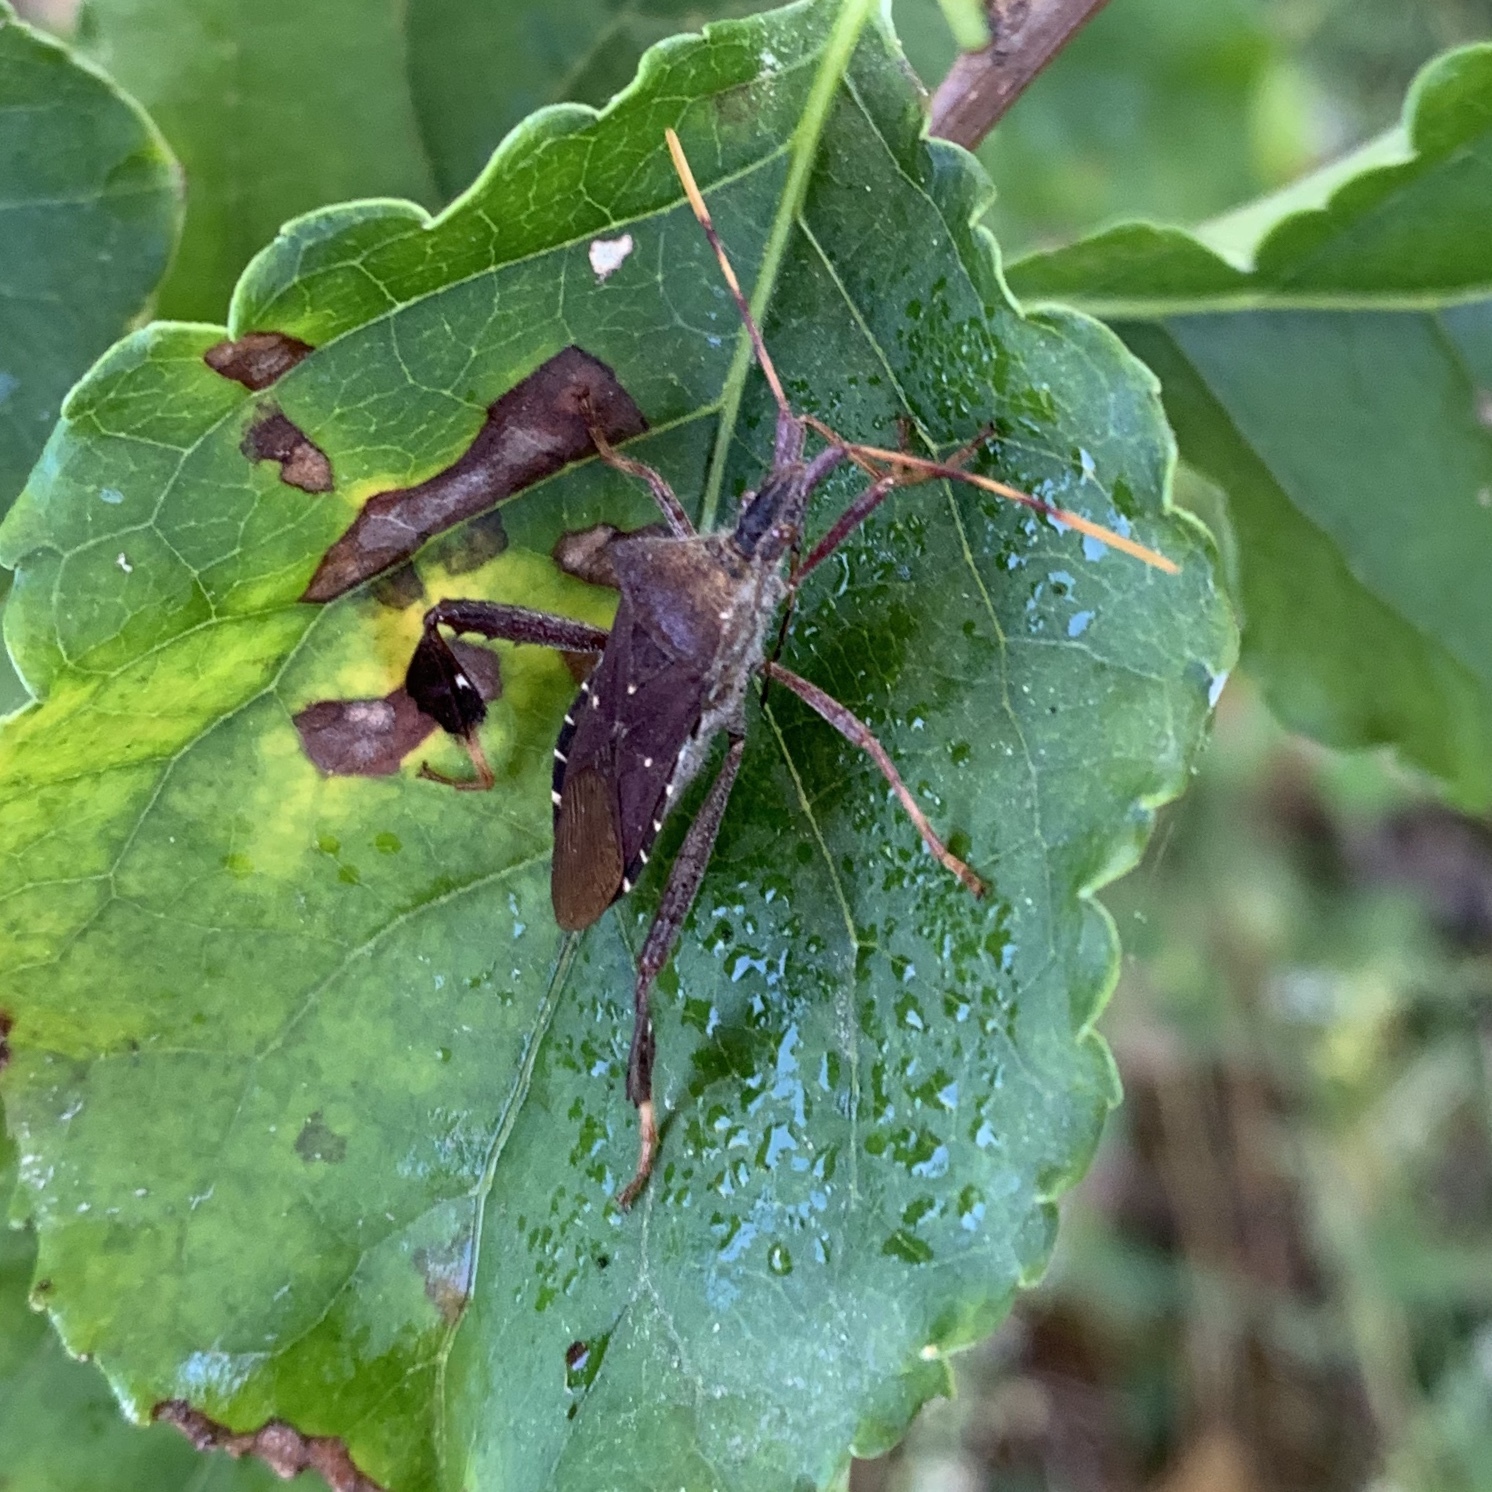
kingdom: Animalia
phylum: Arthropoda
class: Insecta
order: Hemiptera
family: Coreidae
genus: Leptoglossus
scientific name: Leptoglossus oppositus
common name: Northern leaf-footed bug
